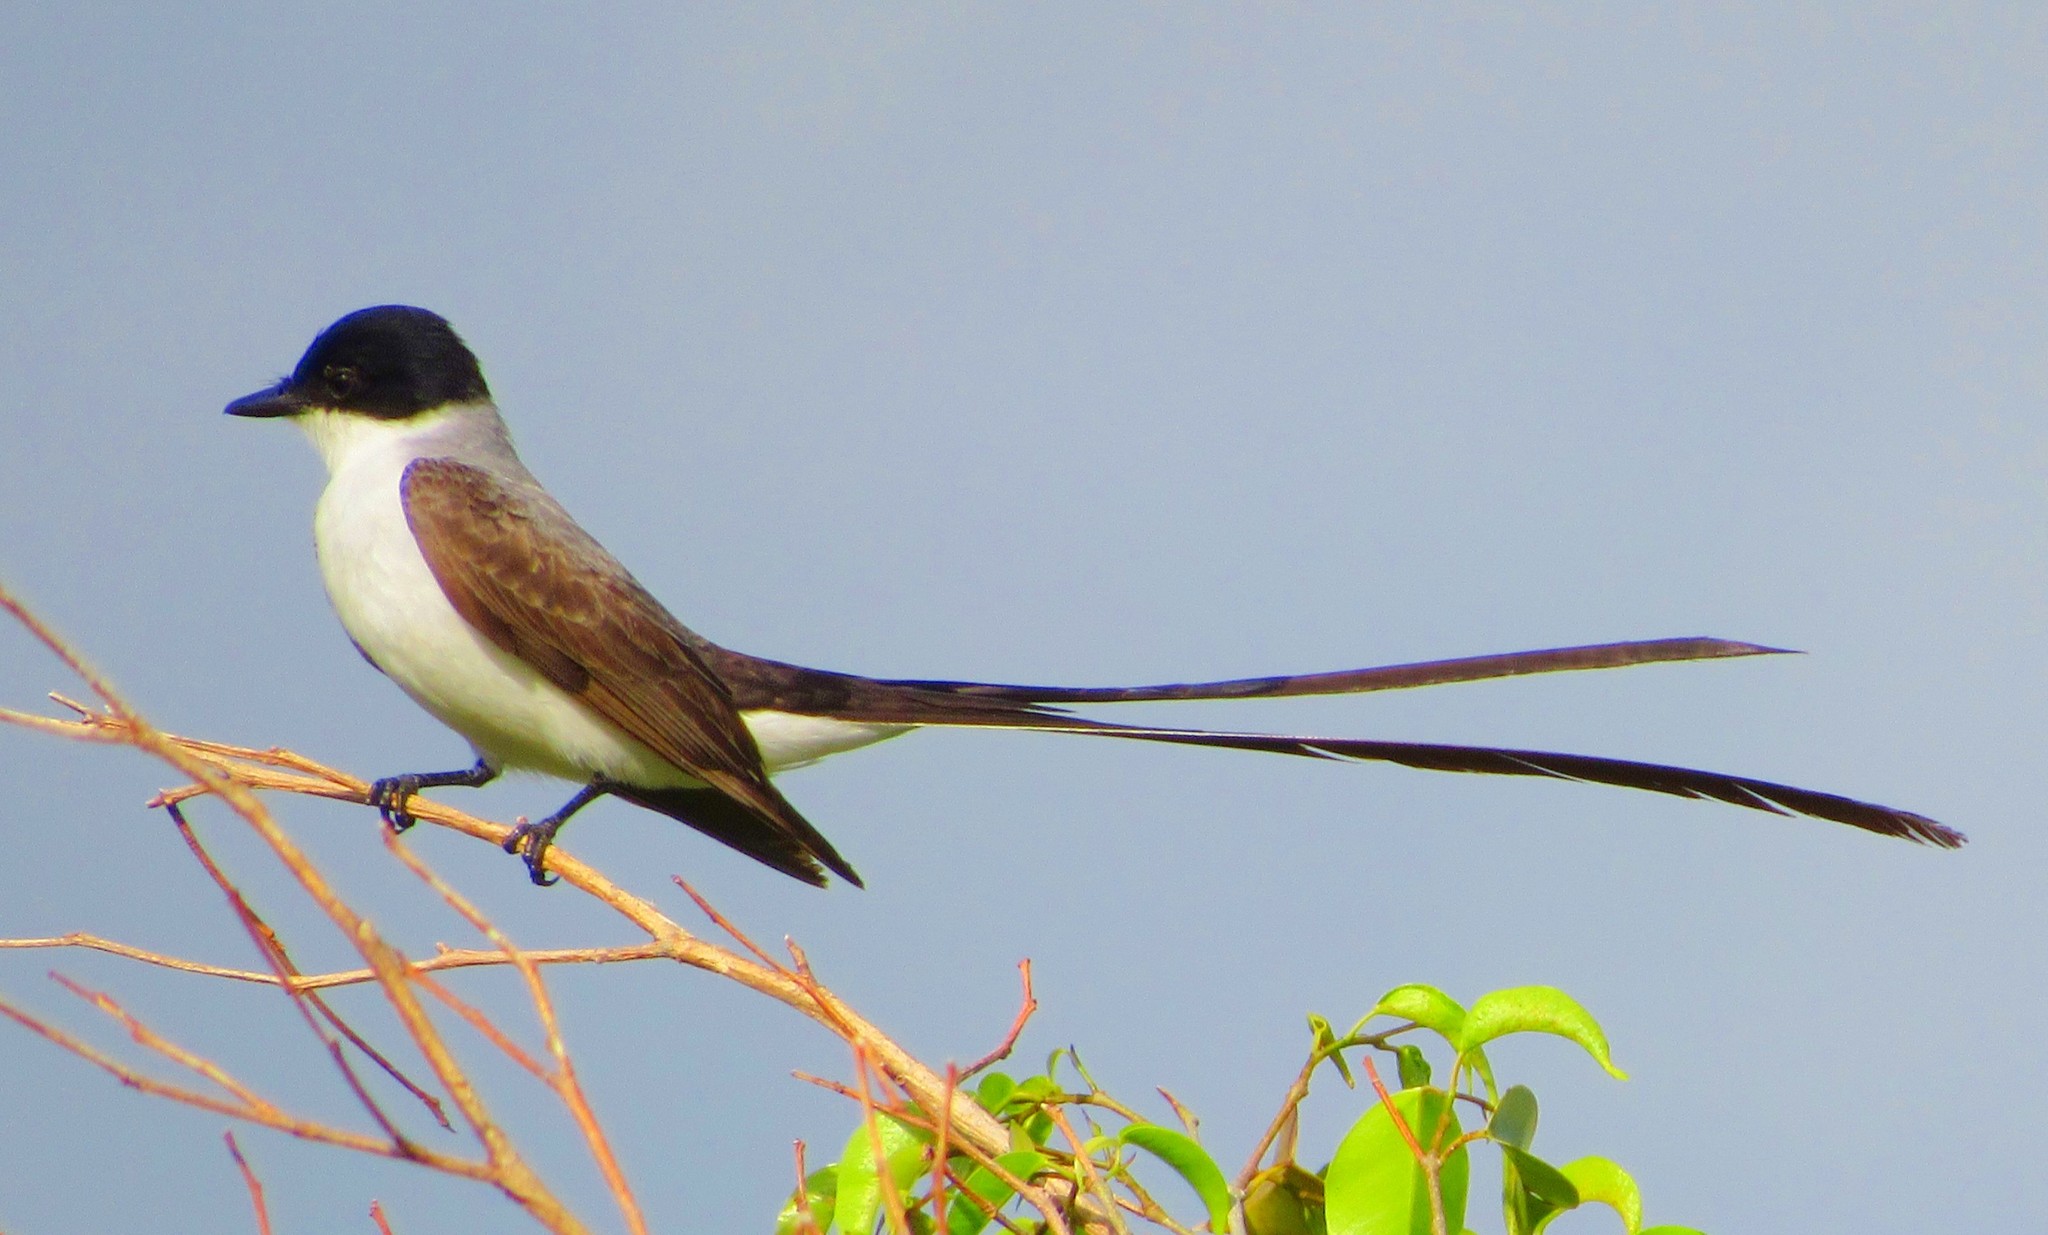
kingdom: Animalia
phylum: Chordata
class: Aves
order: Passeriformes
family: Tyrannidae
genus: Tyrannus
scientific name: Tyrannus savana
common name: Fork-tailed flycatcher
